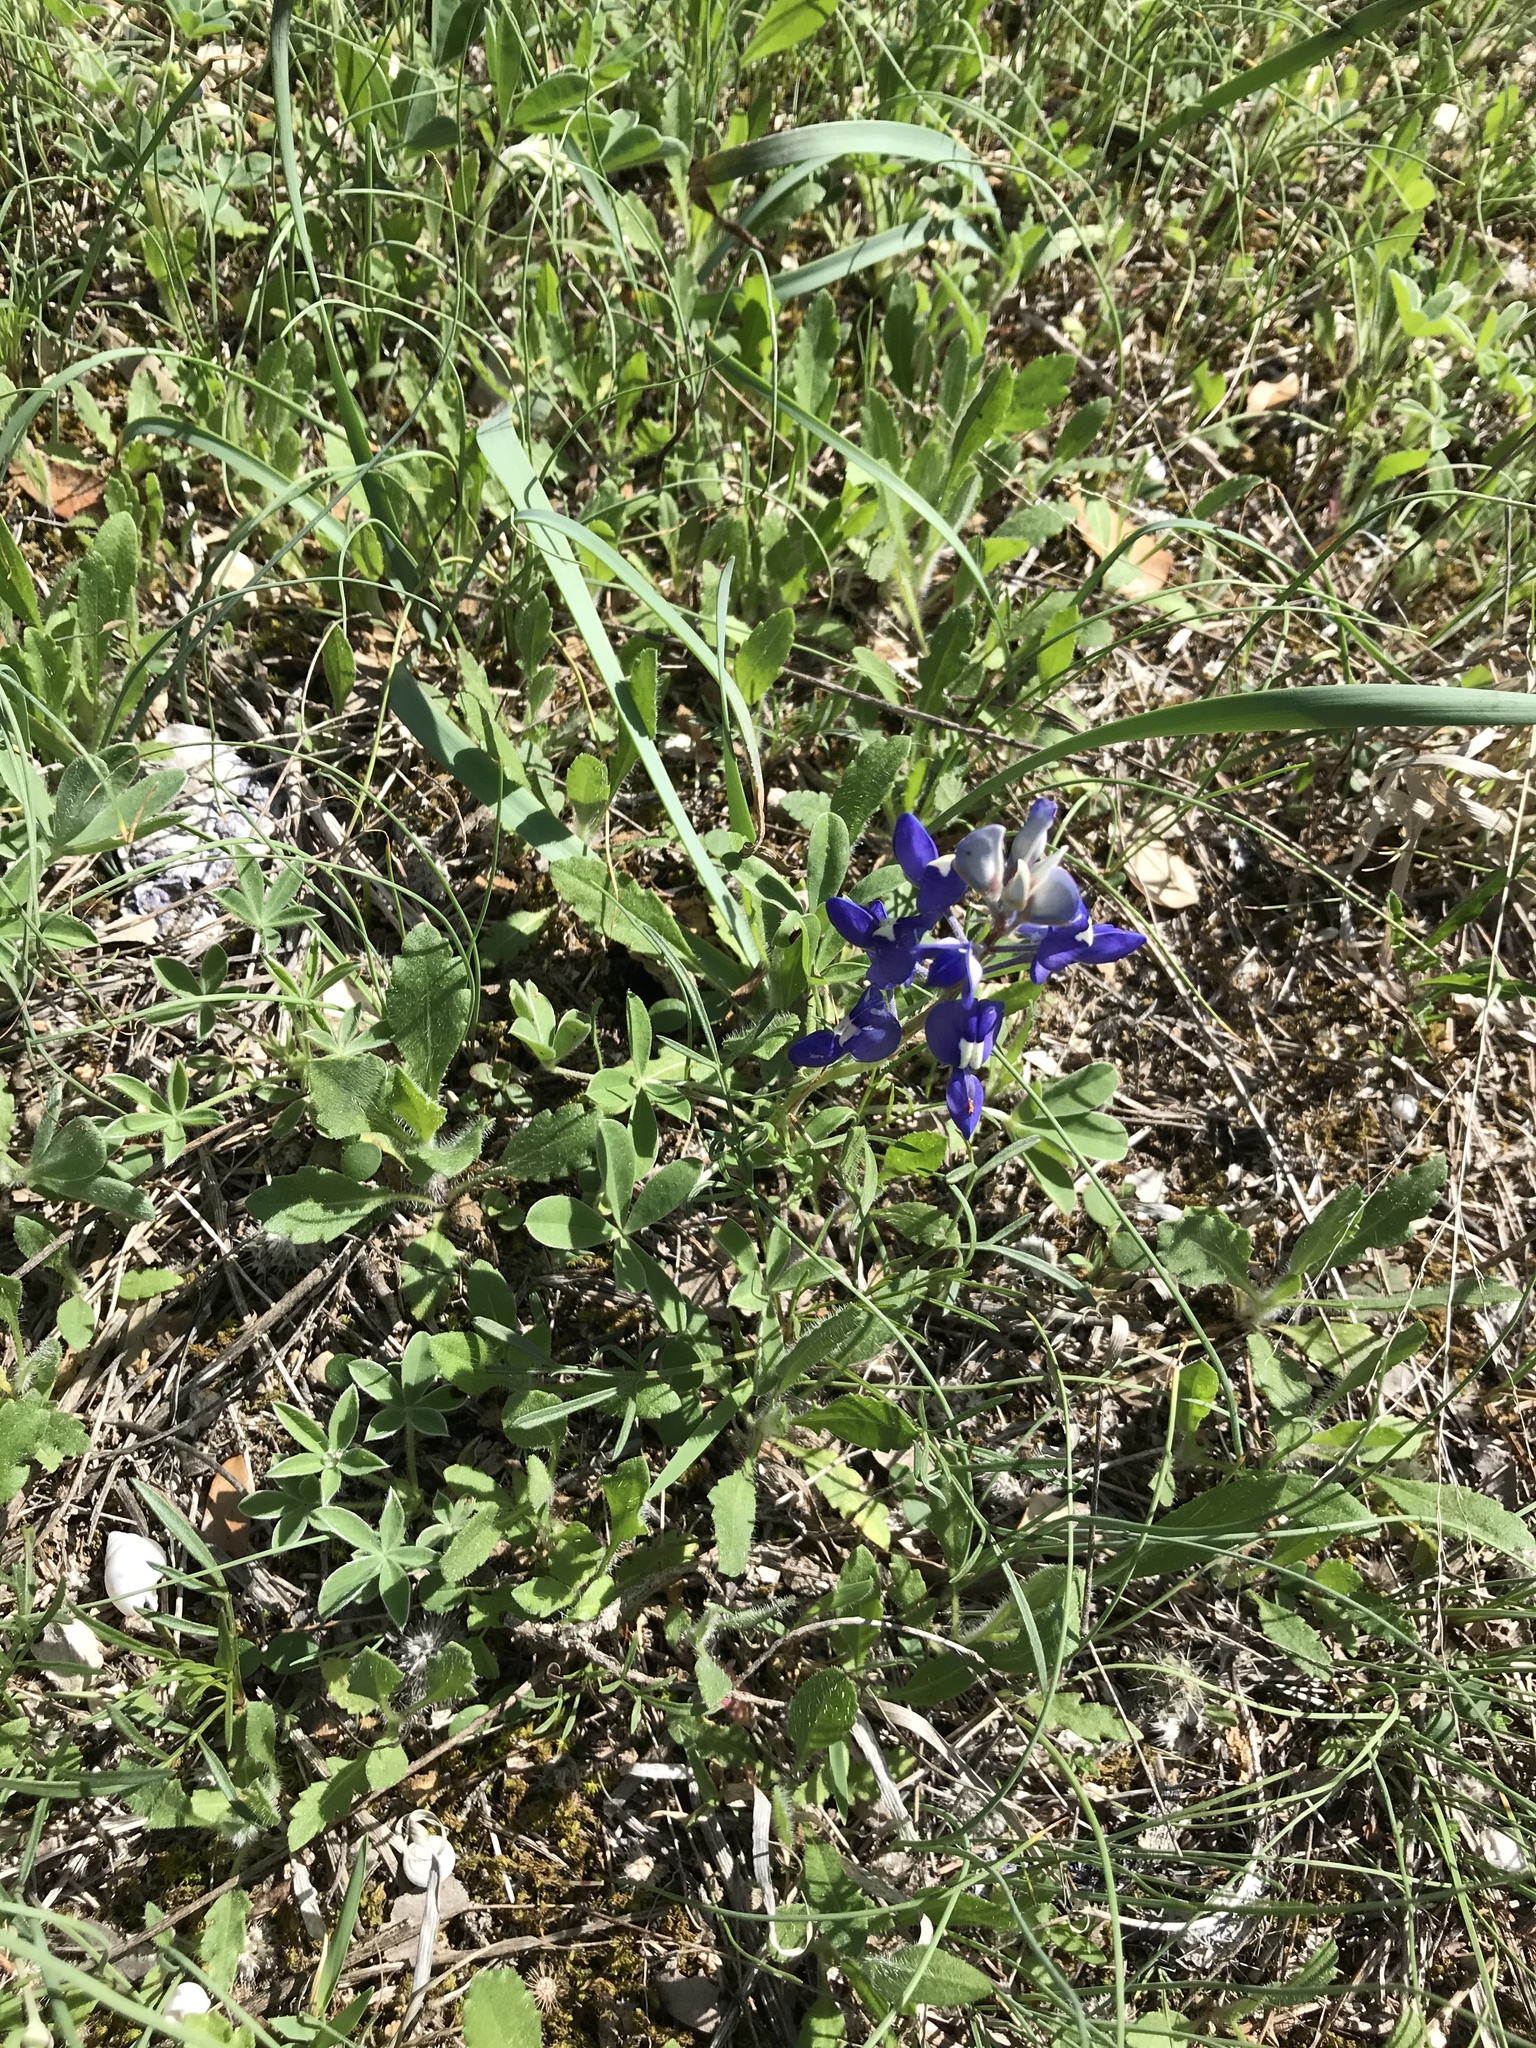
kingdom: Plantae
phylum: Tracheophyta
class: Magnoliopsida
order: Fabales
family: Fabaceae
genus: Lupinus
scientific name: Lupinus texensis
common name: Texas bluebonnet
